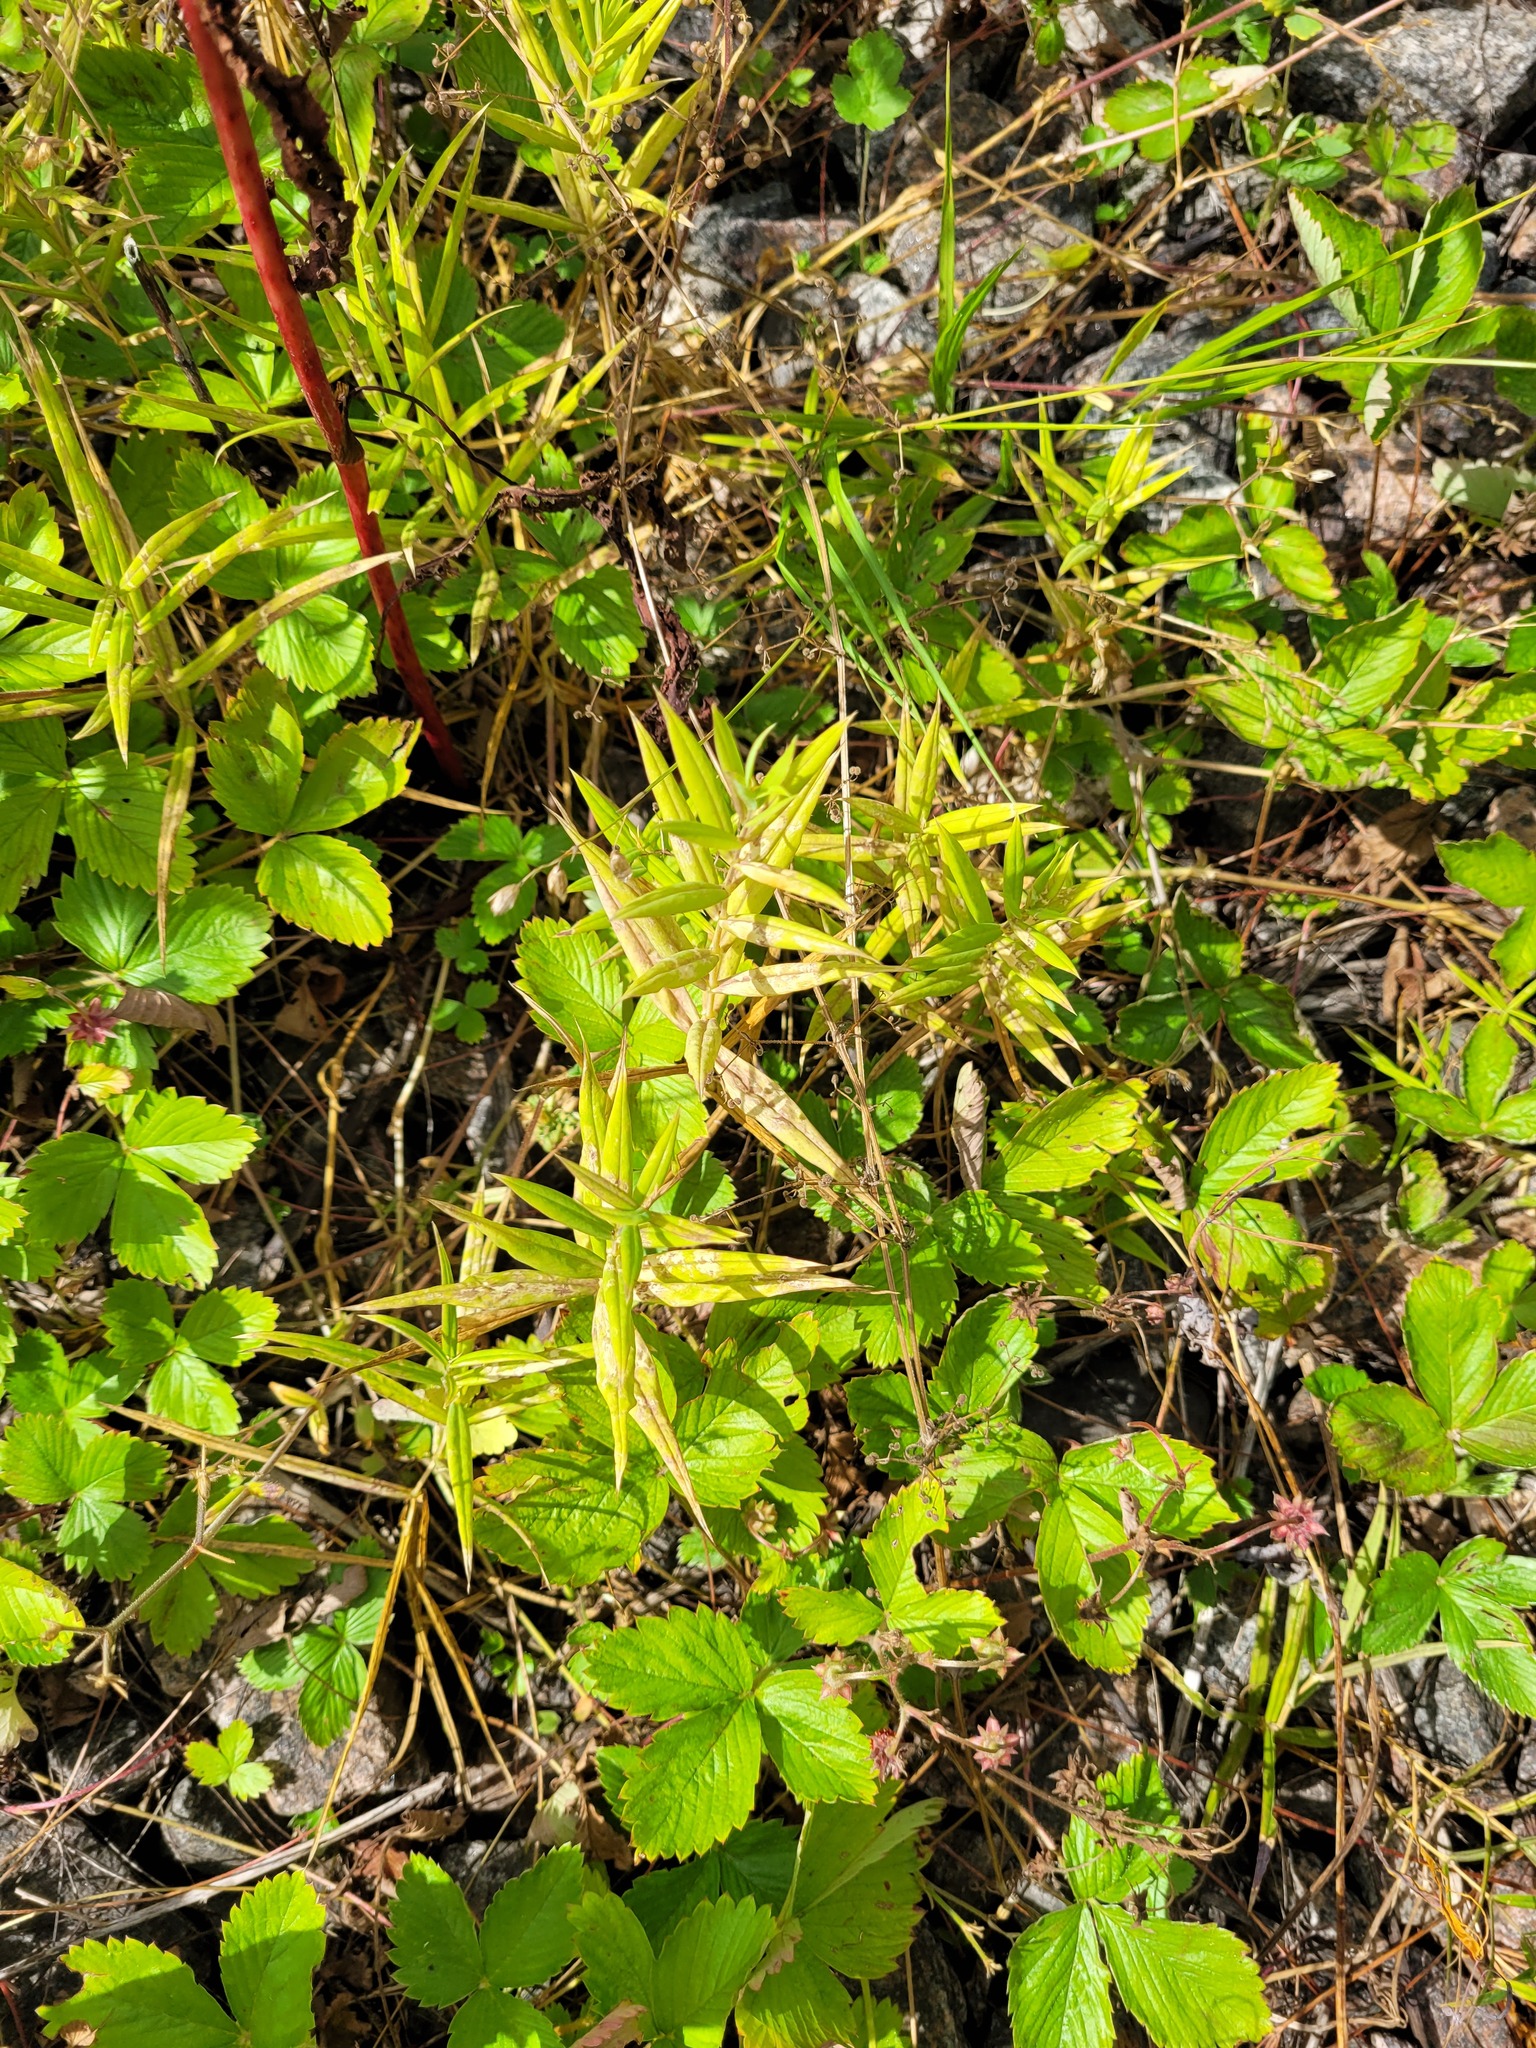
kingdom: Plantae
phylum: Tracheophyta
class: Magnoliopsida
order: Caryophyllales
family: Caryophyllaceae
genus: Rabelera
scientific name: Rabelera holostea
